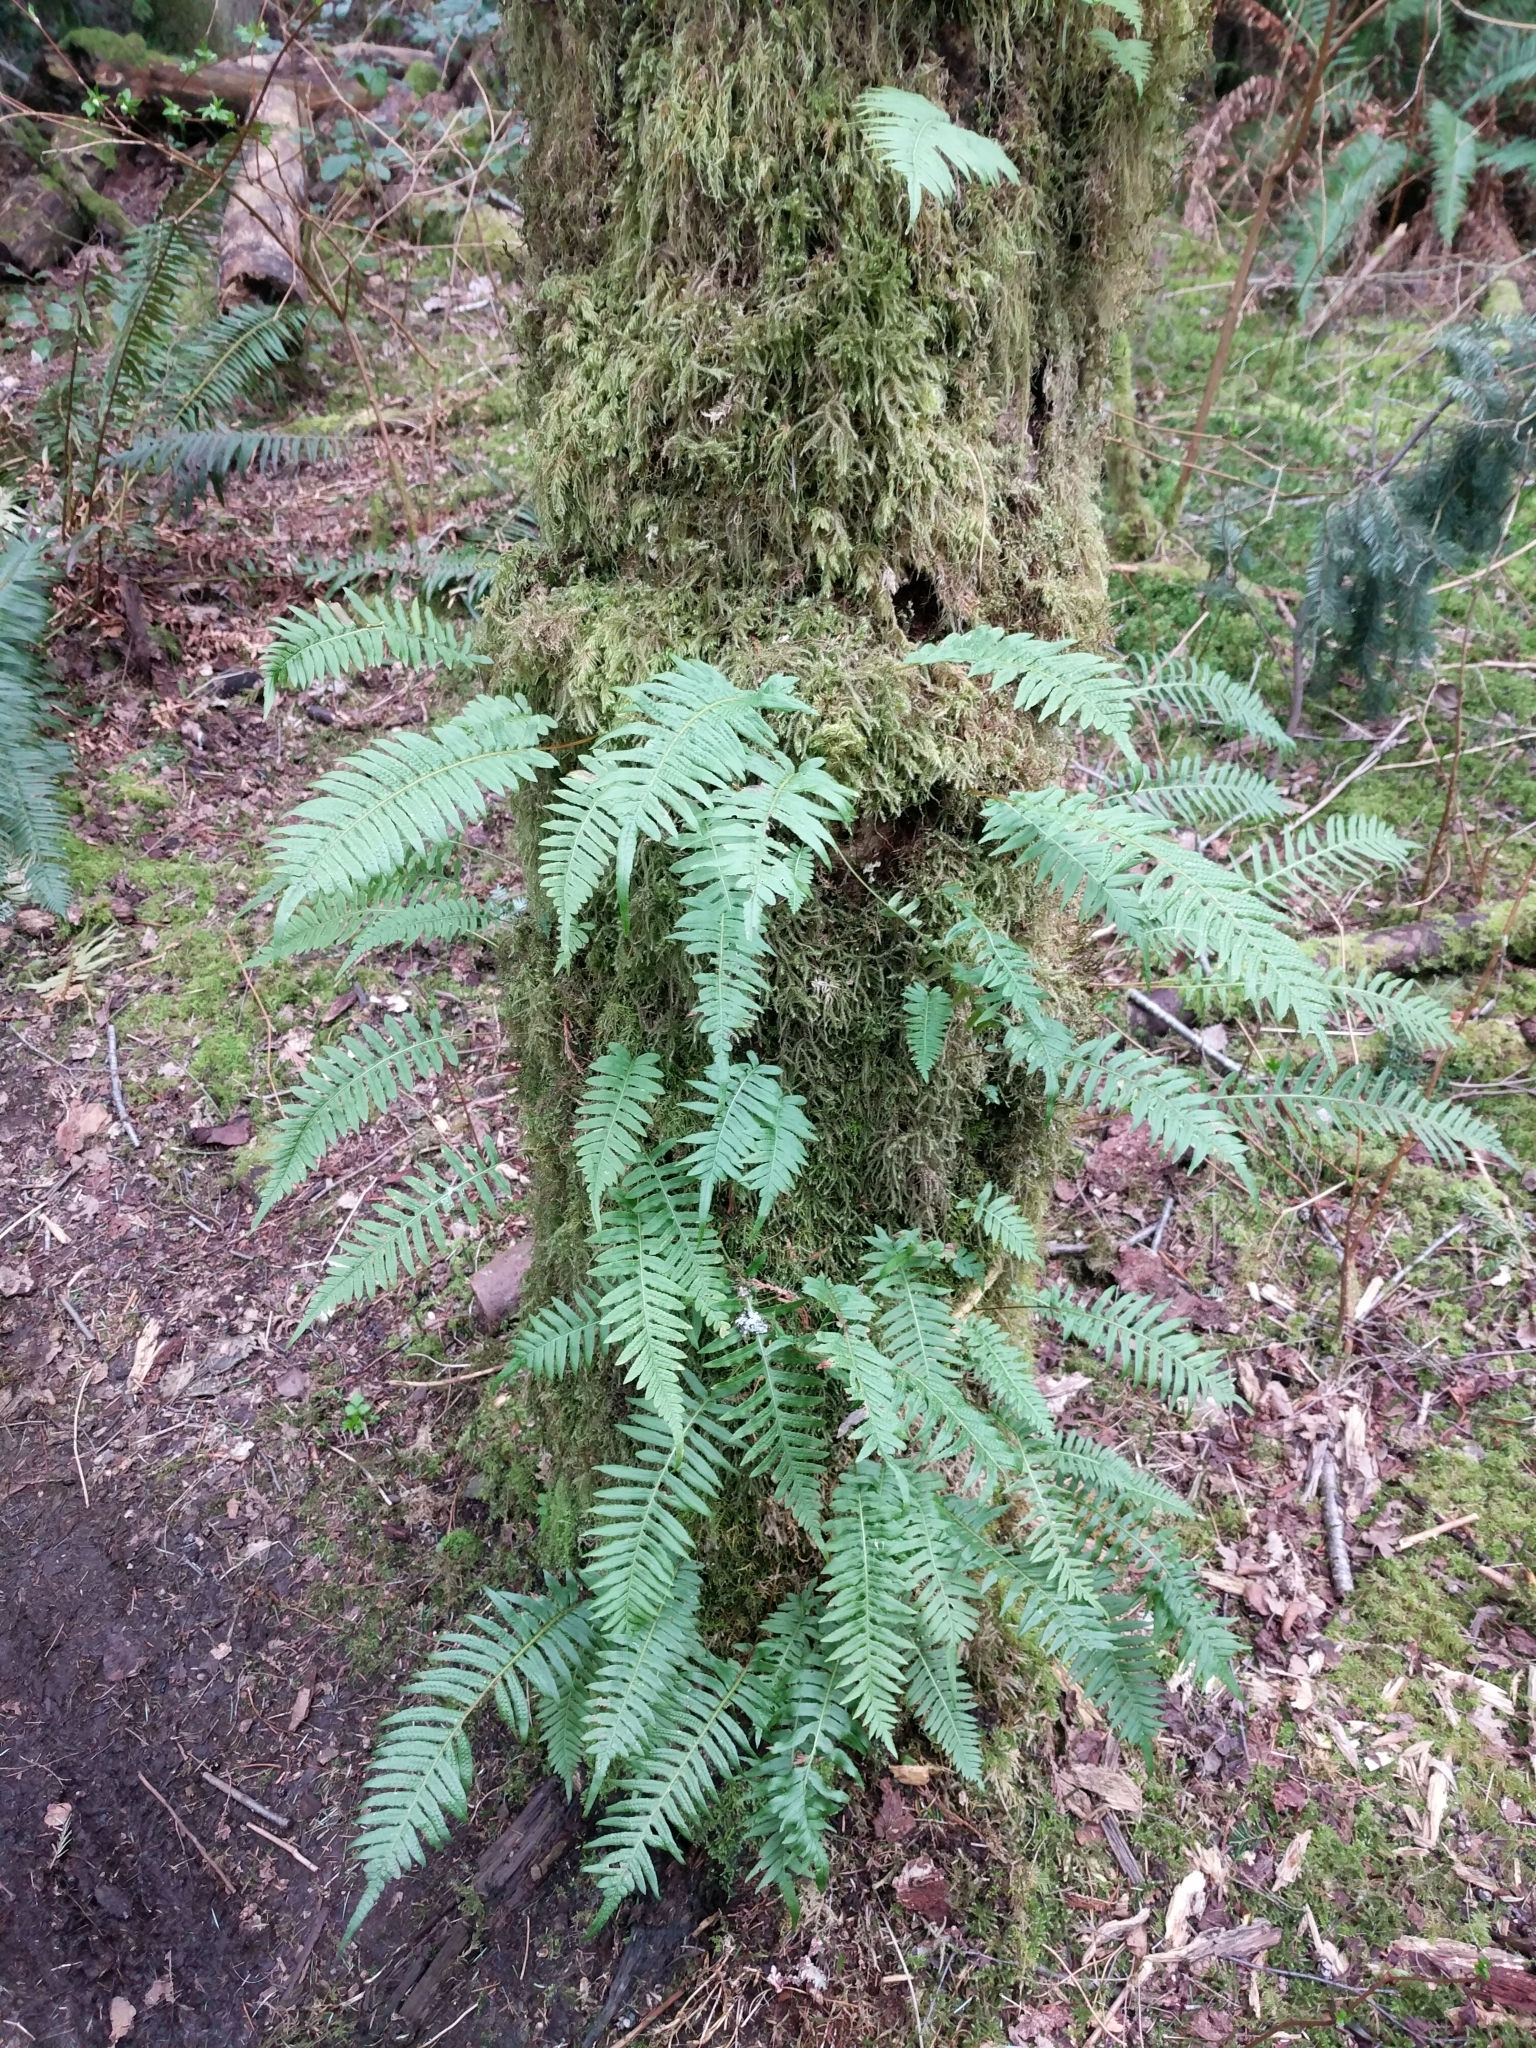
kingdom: Plantae
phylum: Tracheophyta
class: Polypodiopsida
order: Polypodiales
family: Polypodiaceae
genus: Polypodium
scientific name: Polypodium glycyrrhiza
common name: Licorice fern
